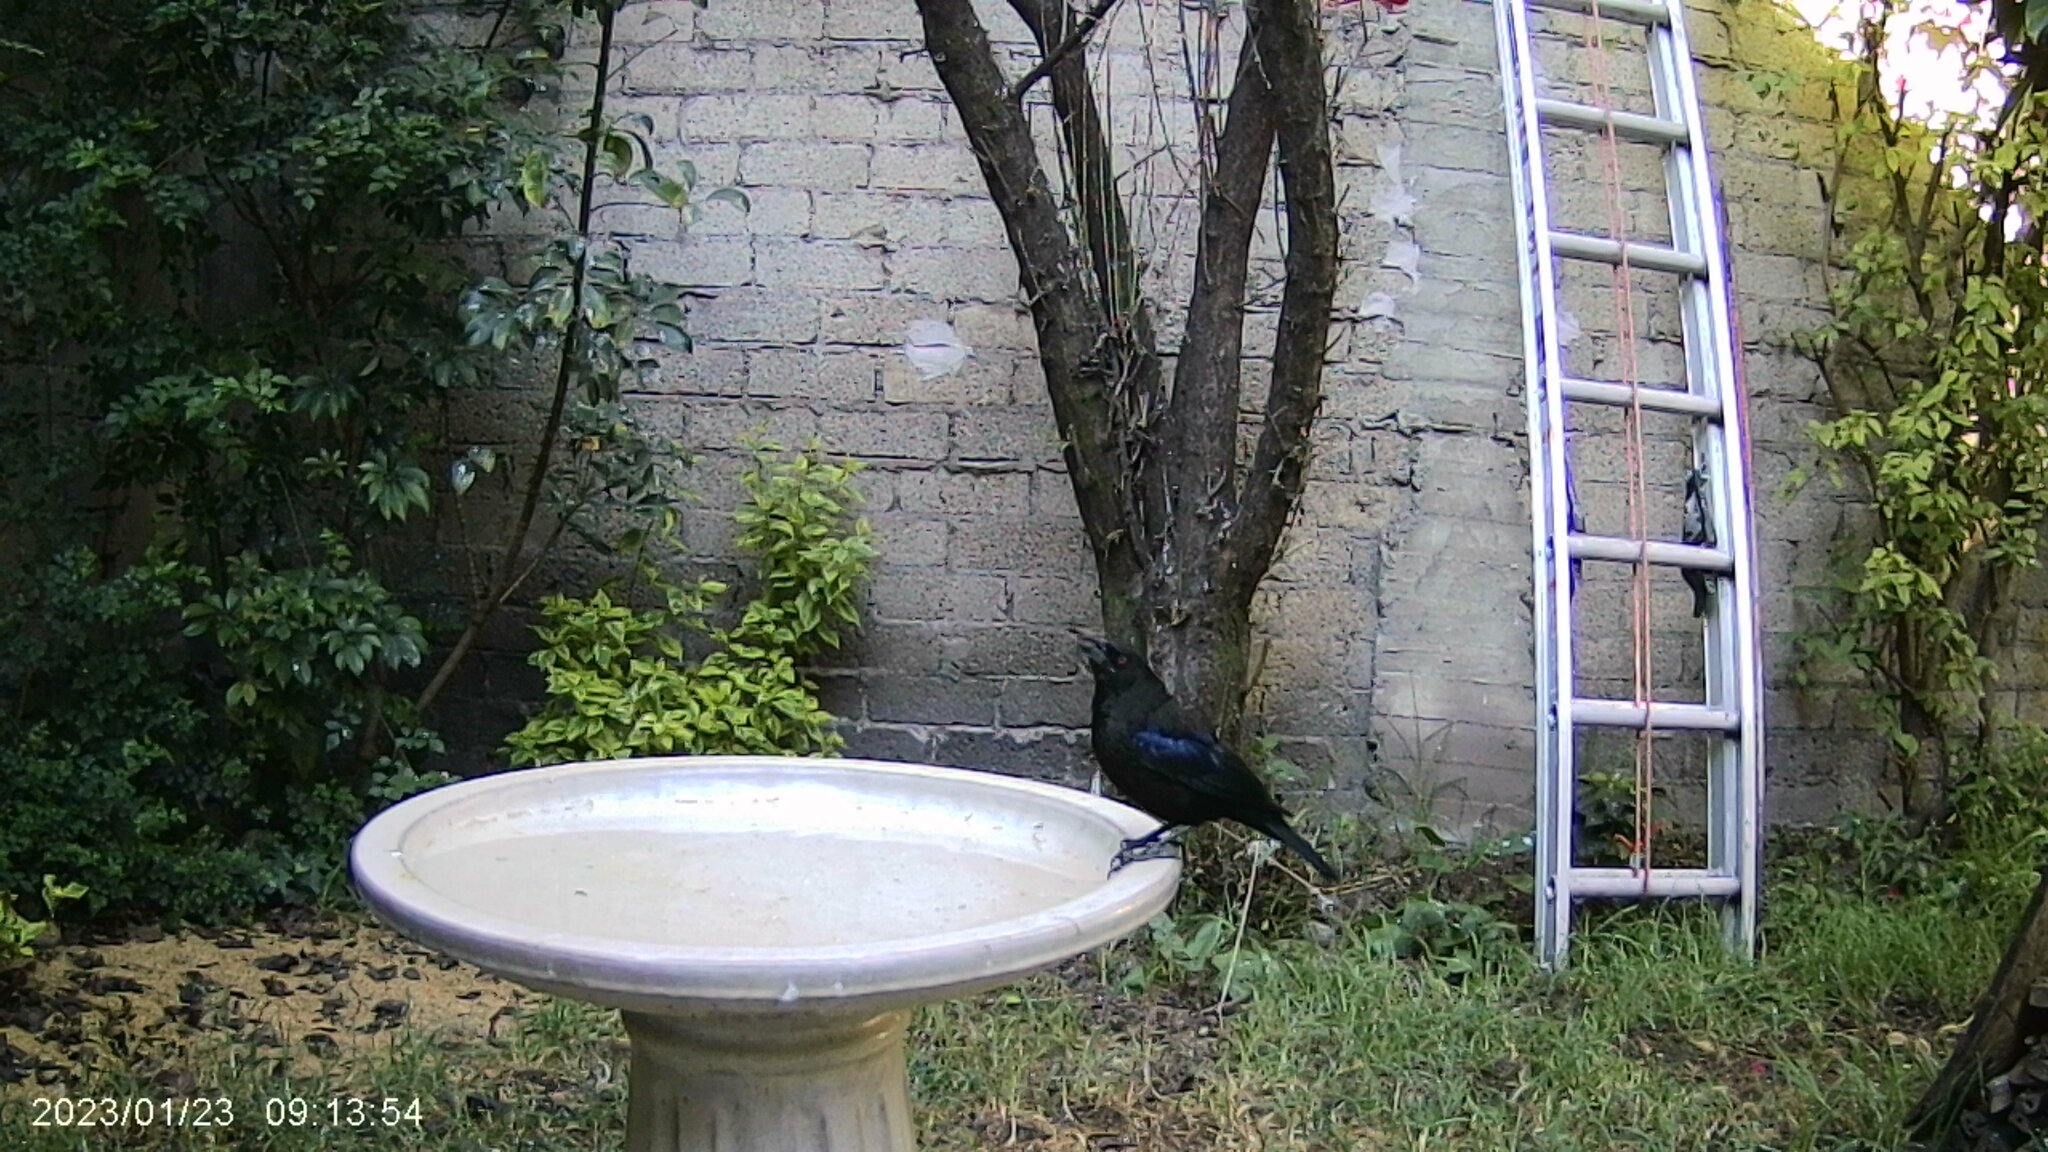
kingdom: Animalia
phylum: Chordata
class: Aves
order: Passeriformes
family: Icteridae
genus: Molothrus
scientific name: Molothrus aeneus
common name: Bronzed cowbird
